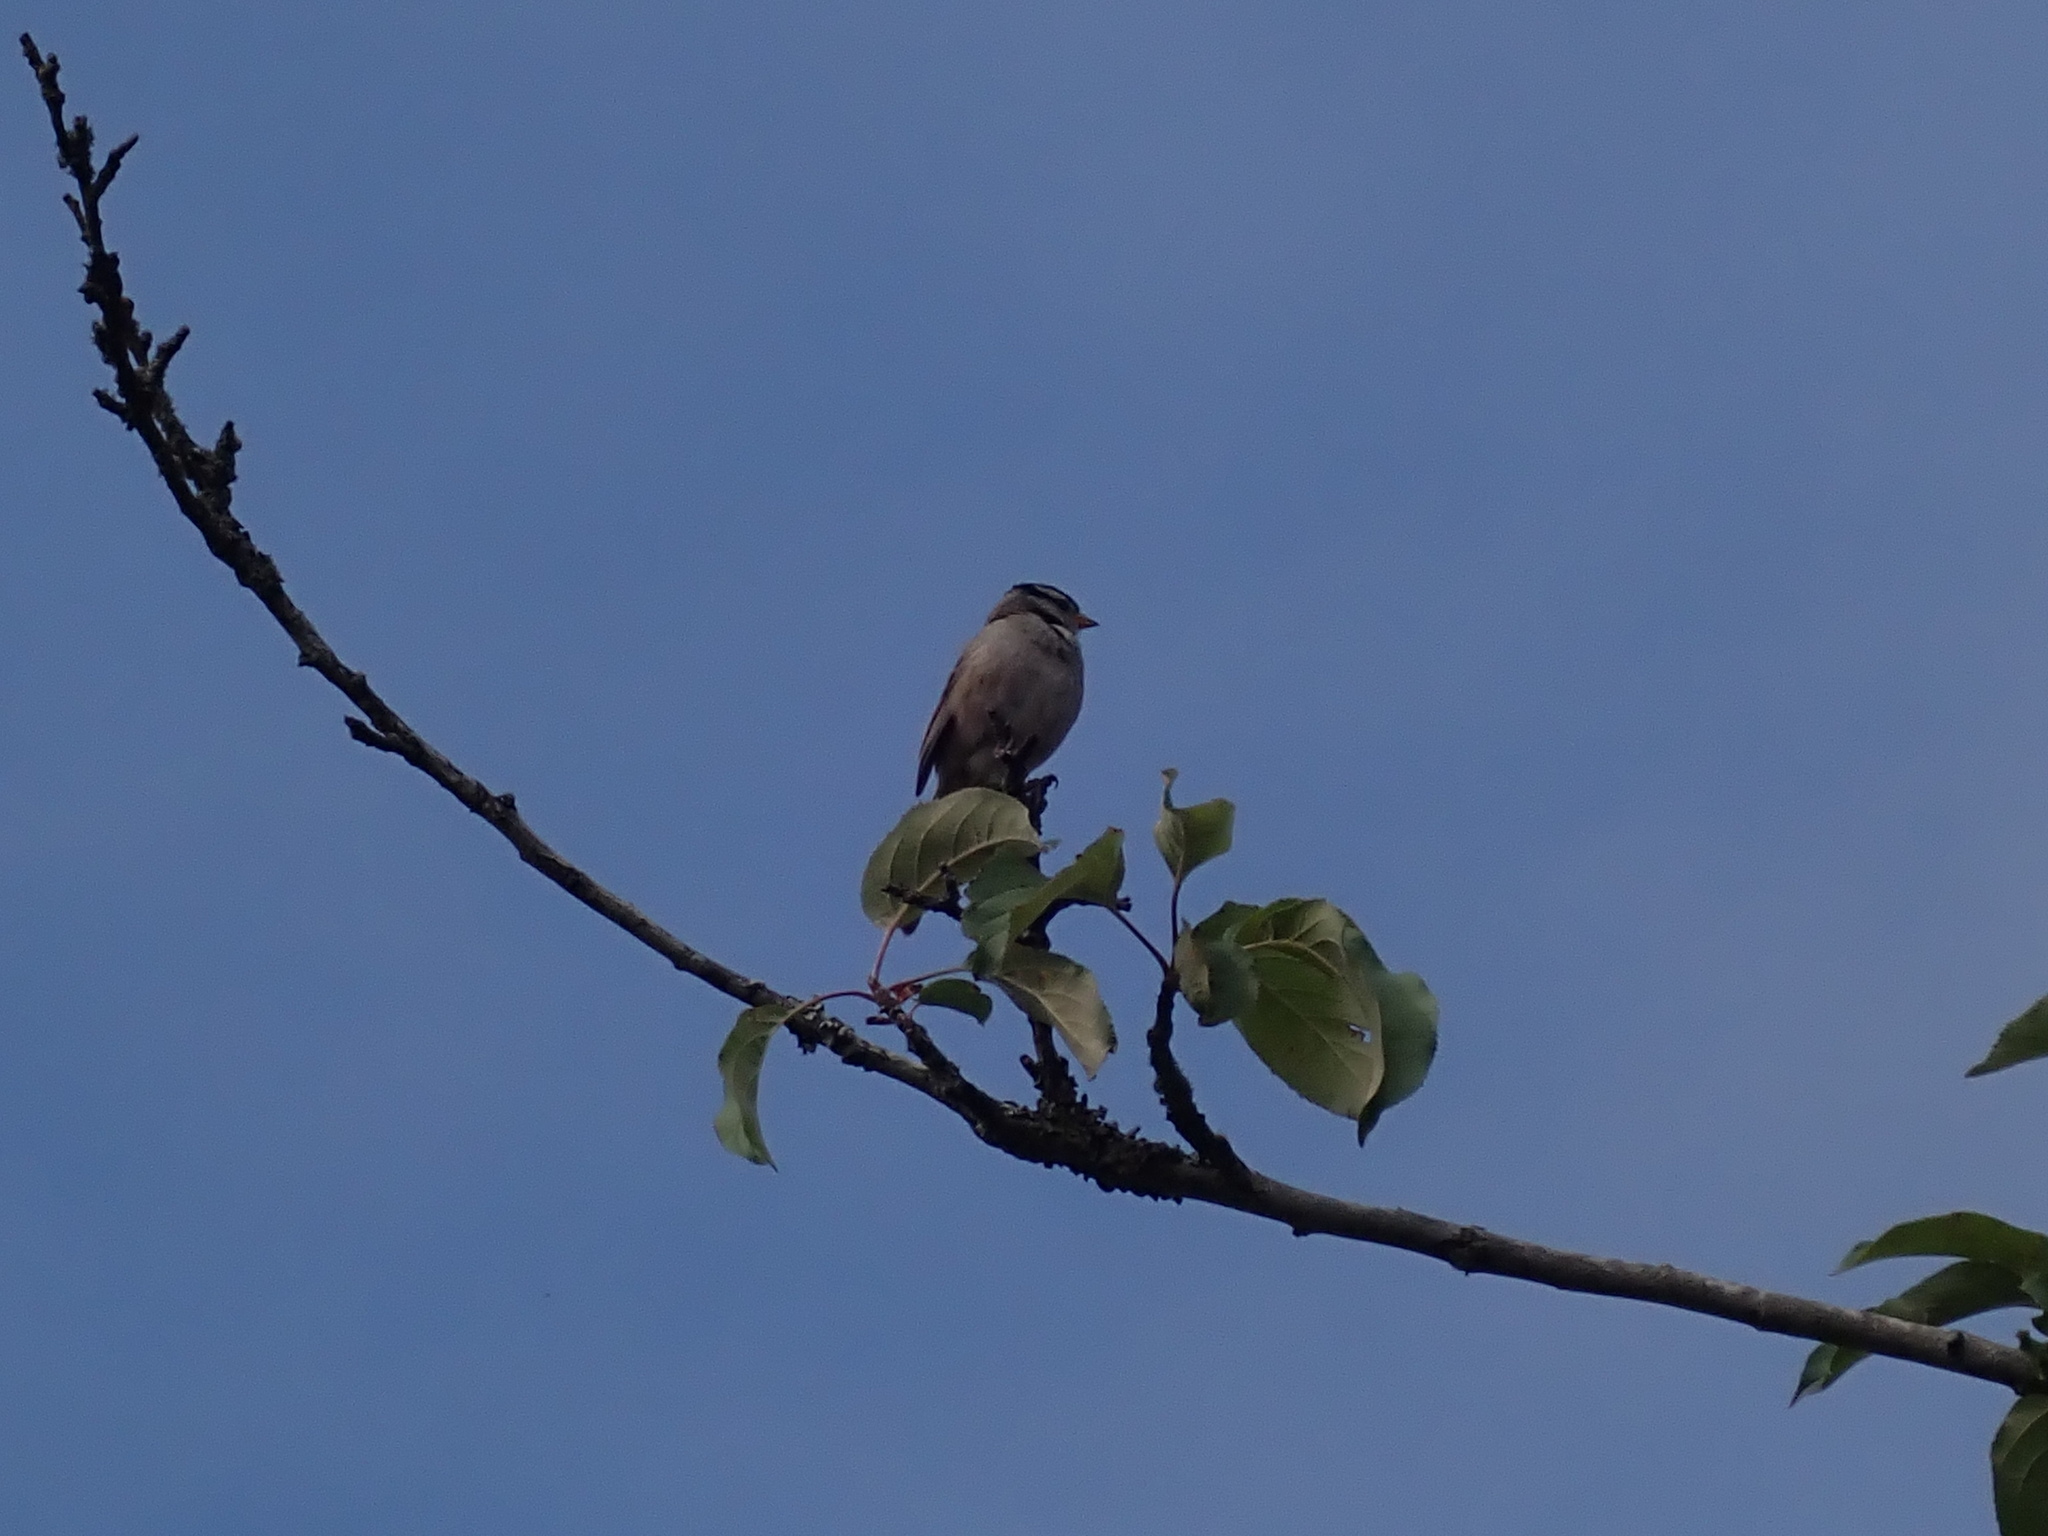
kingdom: Animalia
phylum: Chordata
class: Aves
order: Passeriformes
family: Passerellidae
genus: Zonotrichia
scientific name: Zonotrichia leucophrys
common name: White-crowned sparrow
